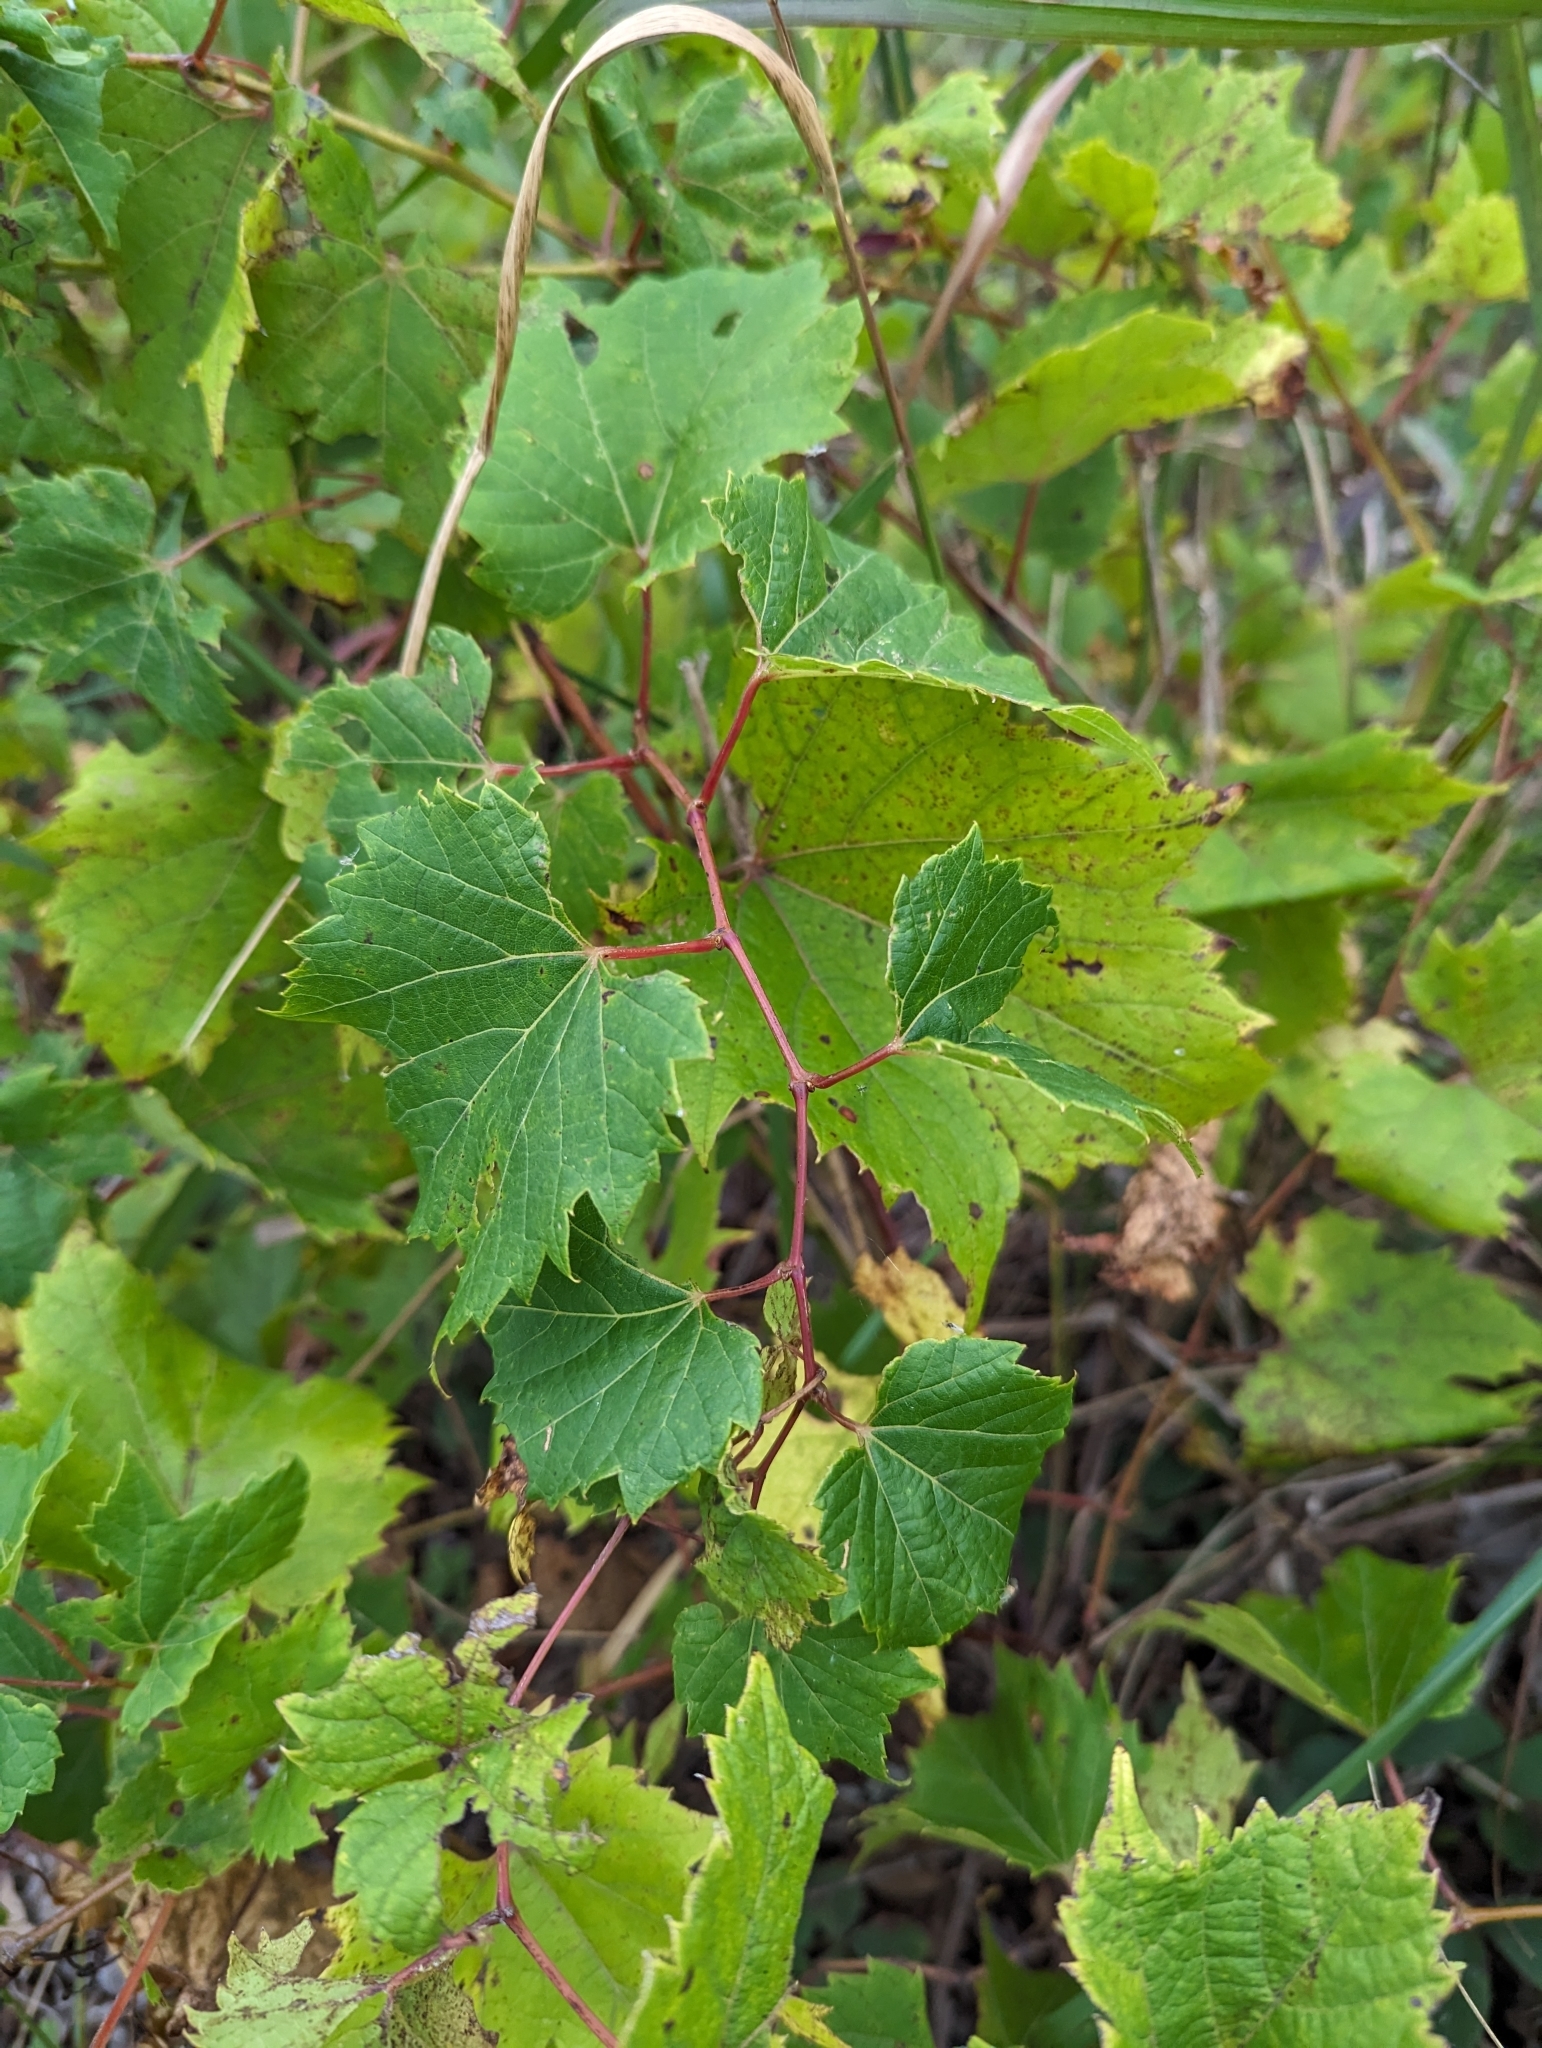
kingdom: Plantae
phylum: Tracheophyta
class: Magnoliopsida
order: Vitales
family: Vitaceae
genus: Vitis
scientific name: Vitis riparia
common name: Frost grape
